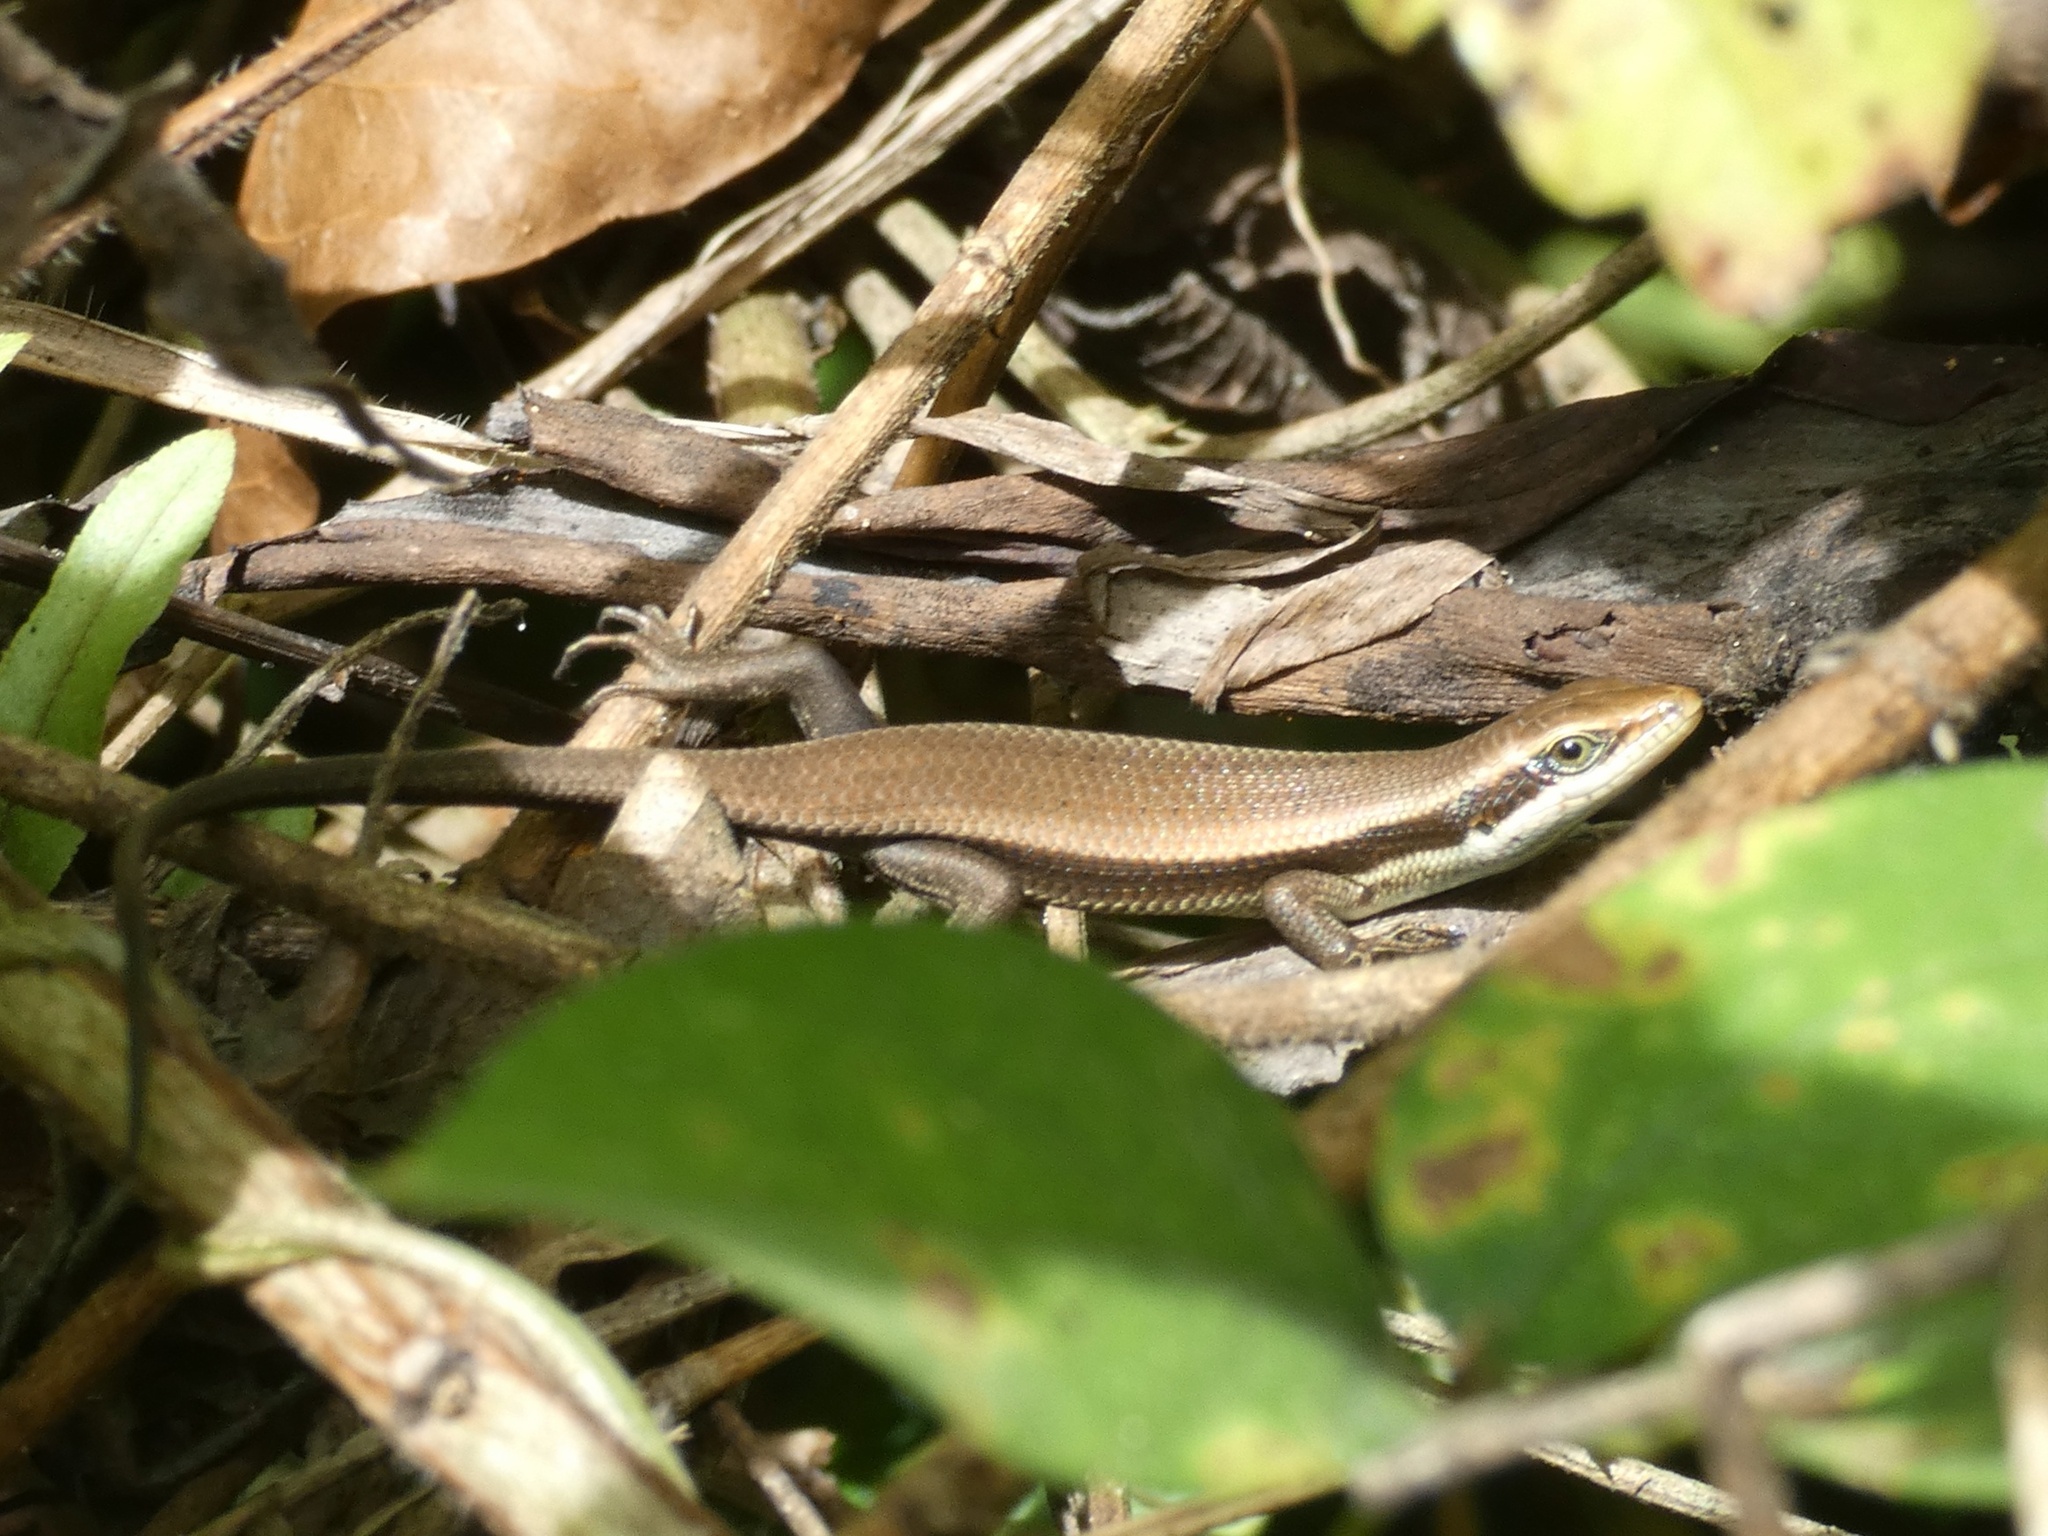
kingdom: Animalia
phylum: Chordata
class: Squamata
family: Scincidae
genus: Eutropis
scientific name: Eutropis multicarinata
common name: Two-striped mabouya
